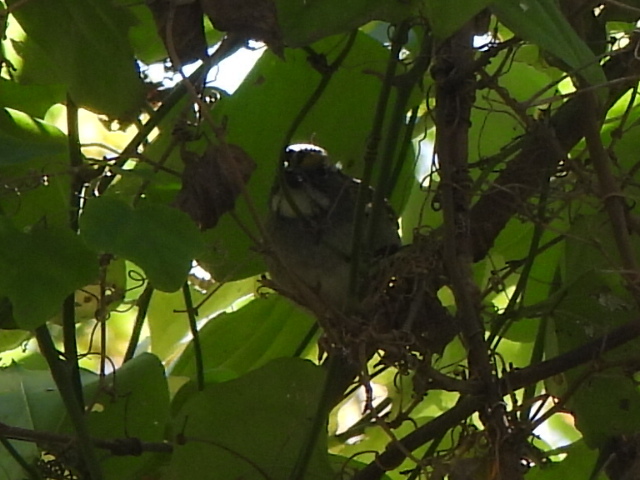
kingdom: Animalia
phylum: Chordata
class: Aves
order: Passeriformes
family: Passerellidae
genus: Zonotrichia
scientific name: Zonotrichia albicollis
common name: White-throated sparrow
